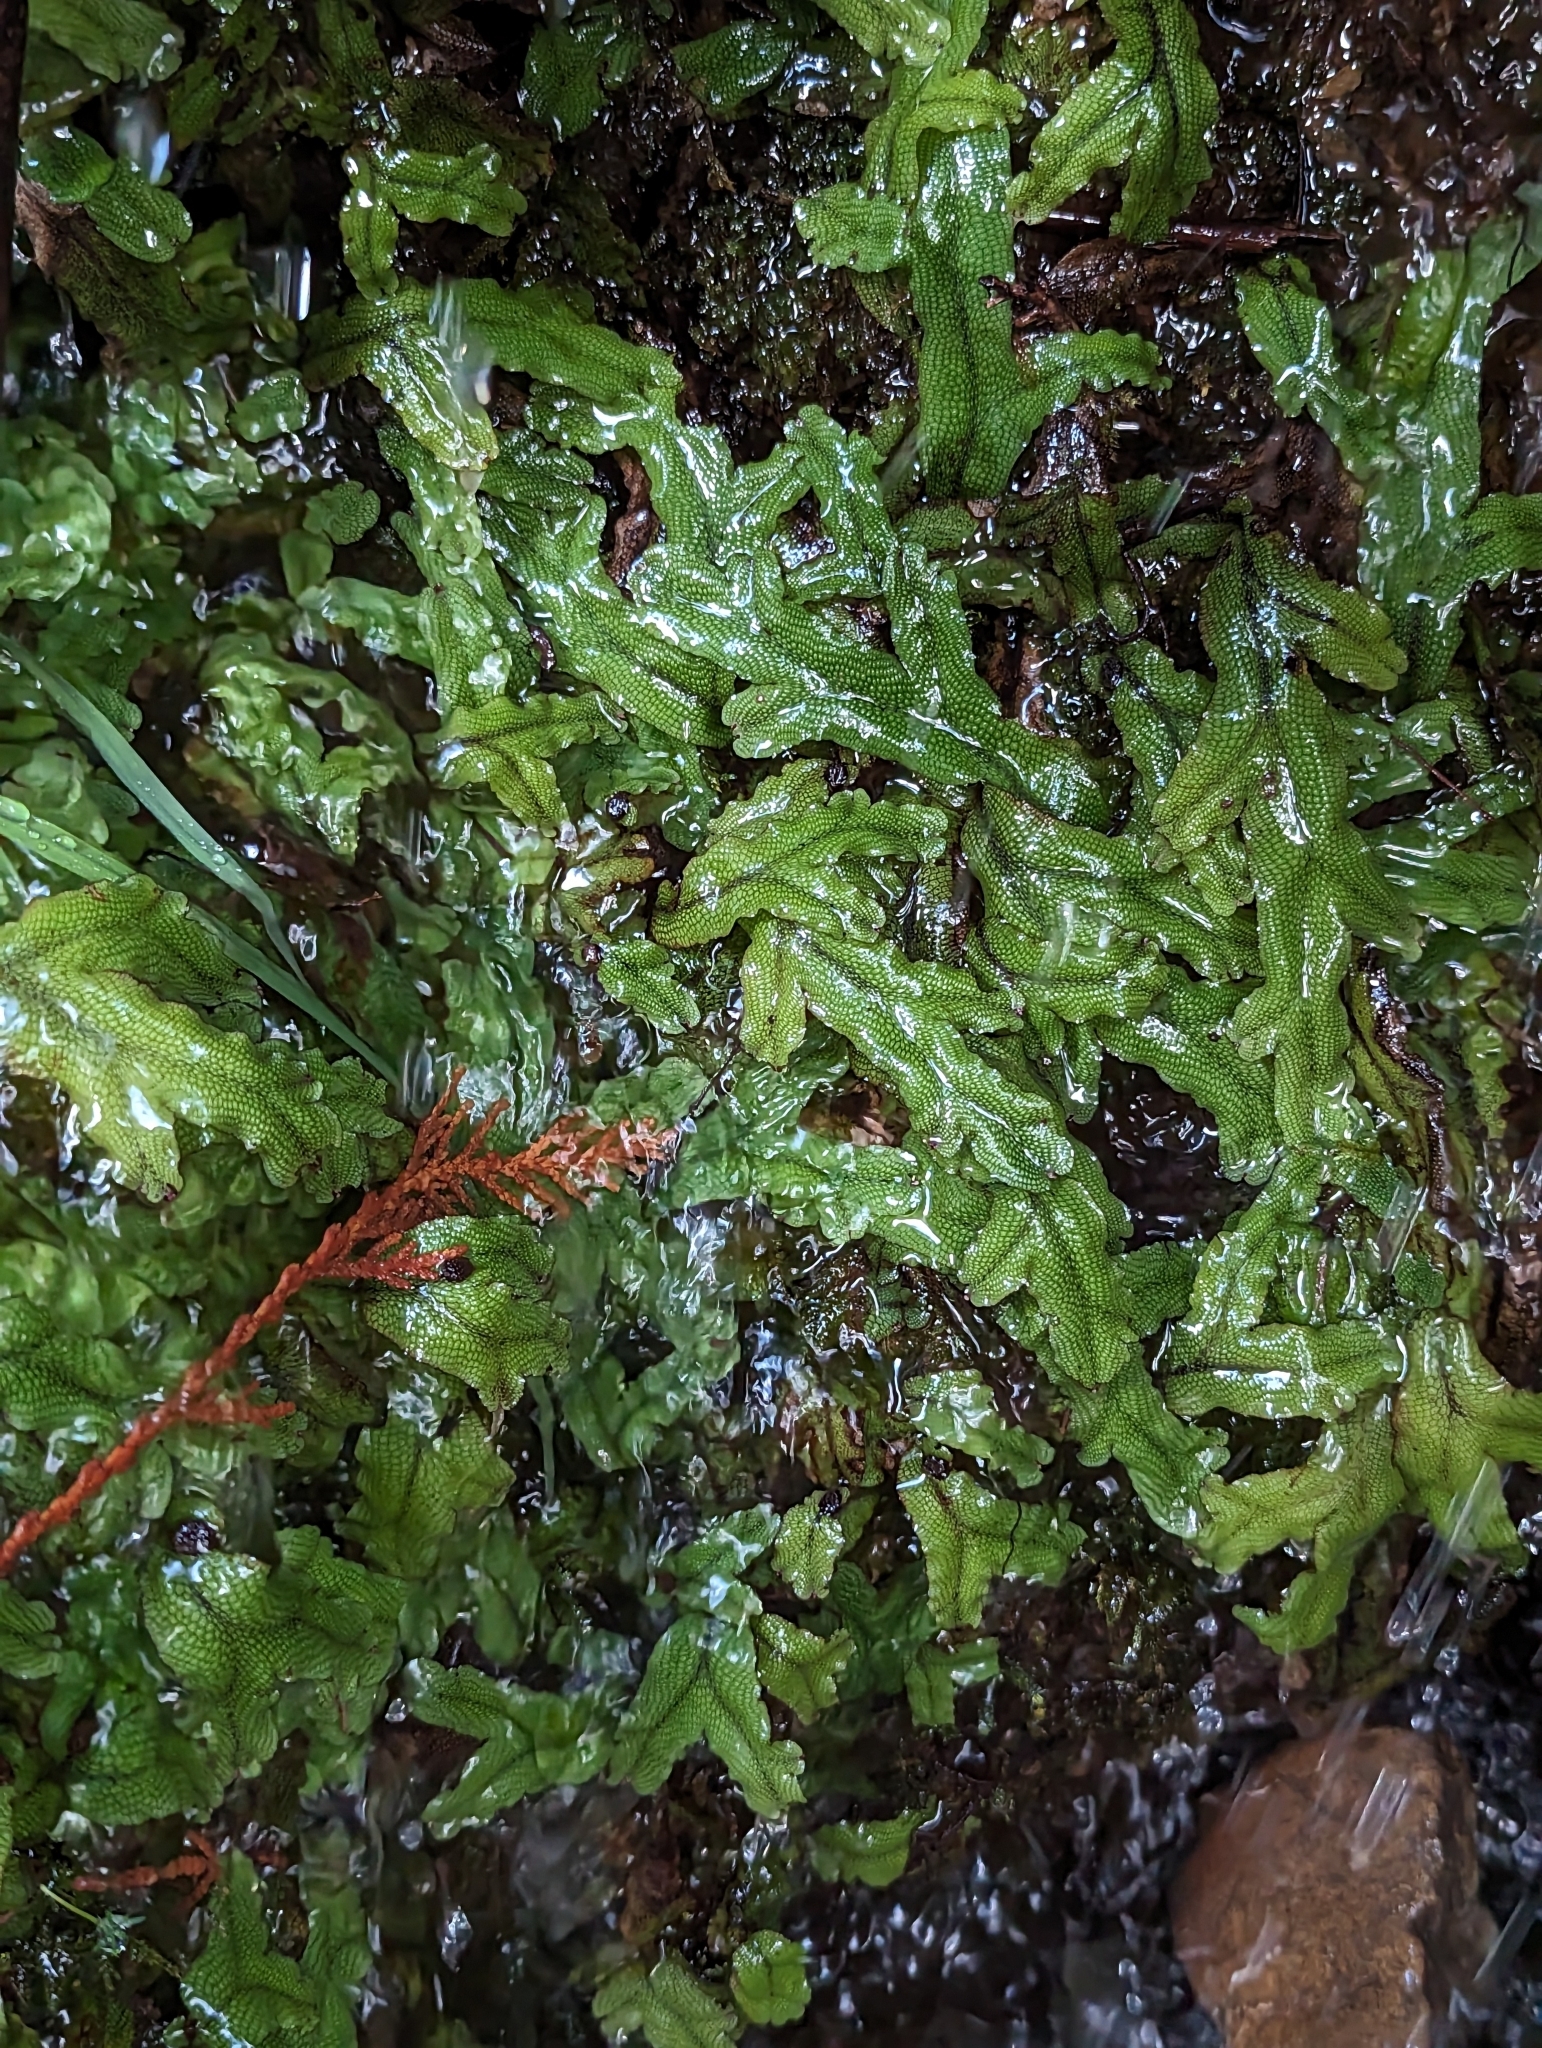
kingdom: Plantae
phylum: Marchantiophyta
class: Marchantiopsida
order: Marchantiales
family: Conocephalaceae
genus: Conocephalum
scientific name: Conocephalum salebrosum
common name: Cat-tongue liverwort
